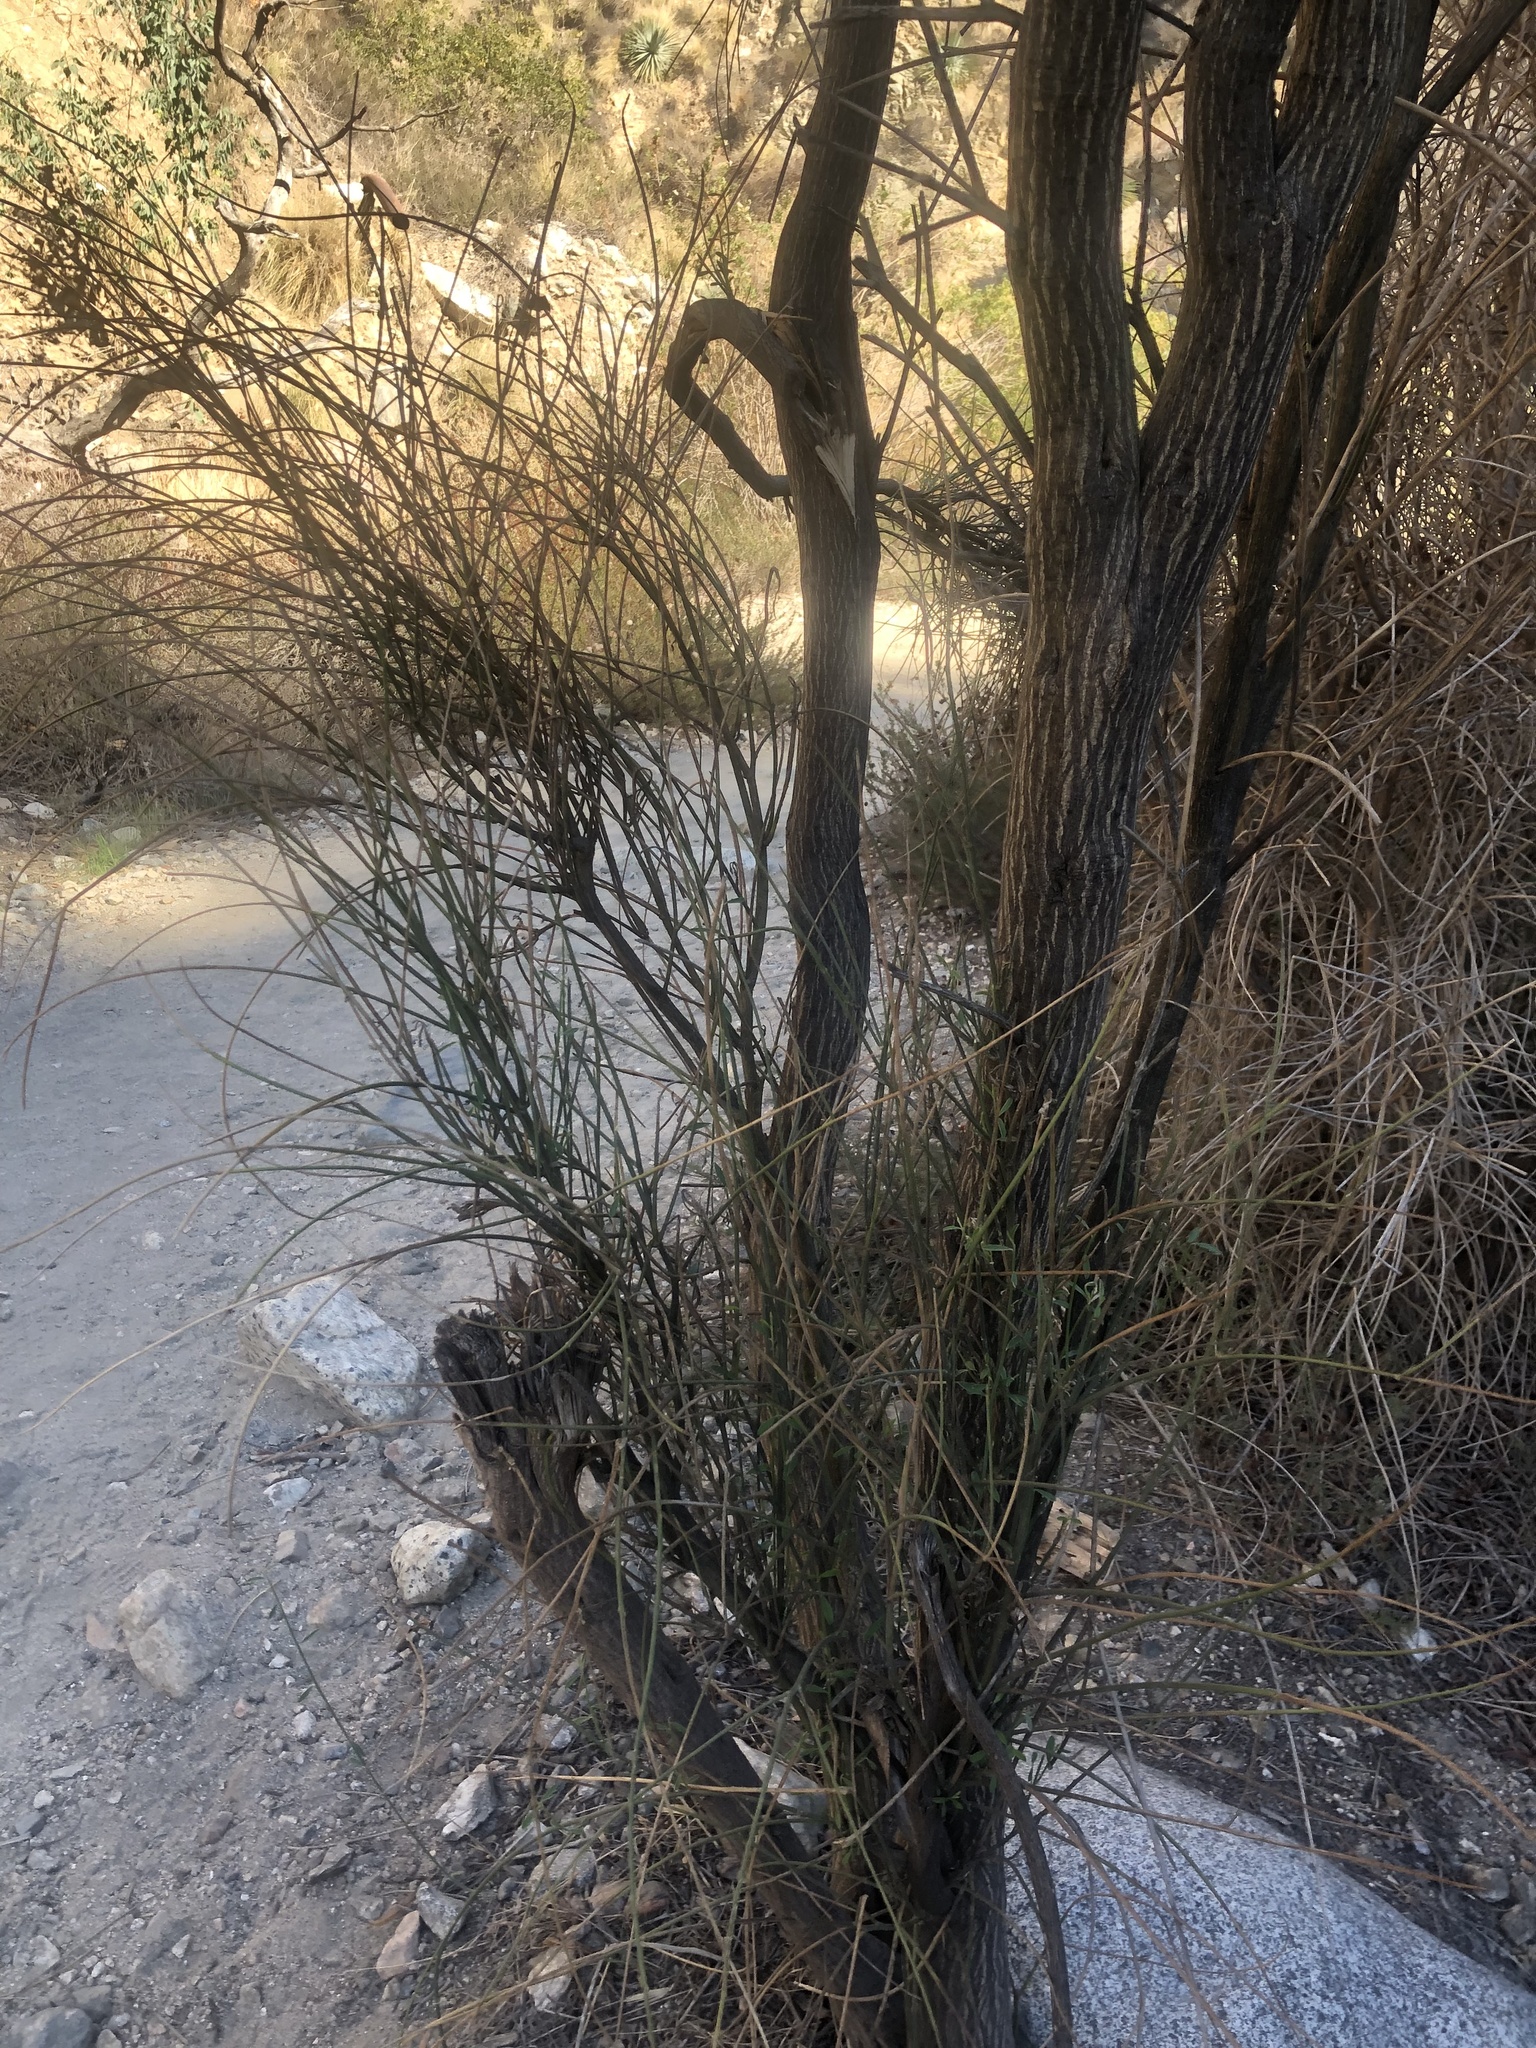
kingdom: Plantae
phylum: Tracheophyta
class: Magnoliopsida
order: Fabales
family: Fabaceae
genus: Spartium
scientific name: Spartium junceum
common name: Spanish broom
